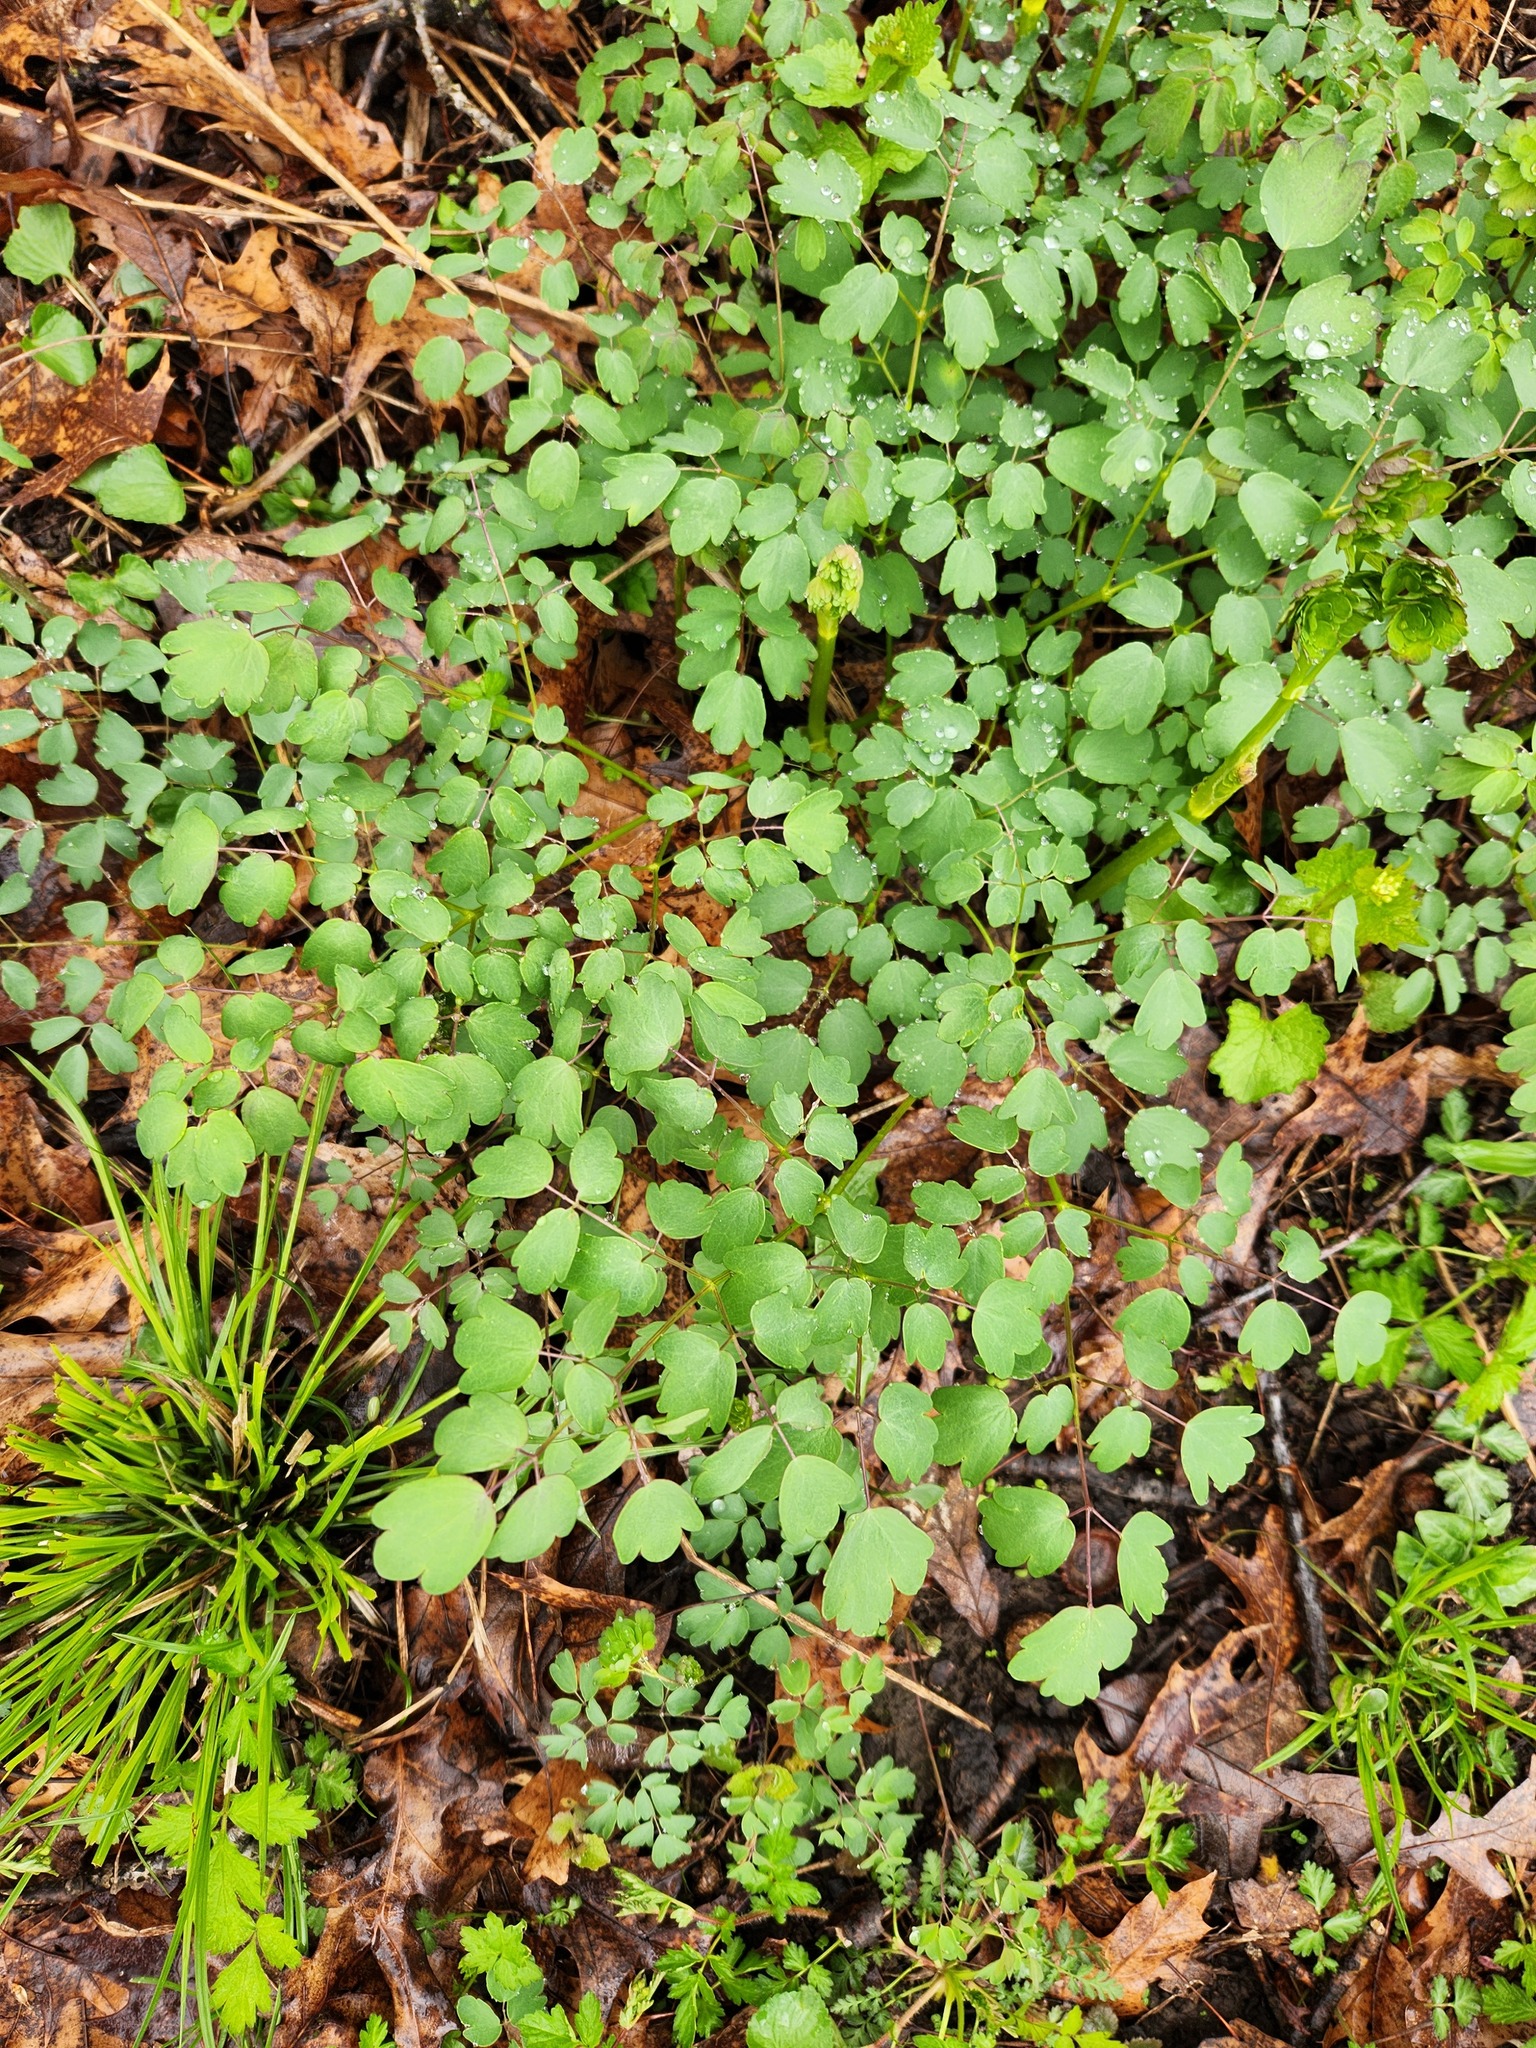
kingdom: Plantae
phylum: Tracheophyta
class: Magnoliopsida
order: Ranunculales
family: Ranunculaceae
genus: Thalictrum
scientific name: Thalictrum dioicum
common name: Early meadow-rue
